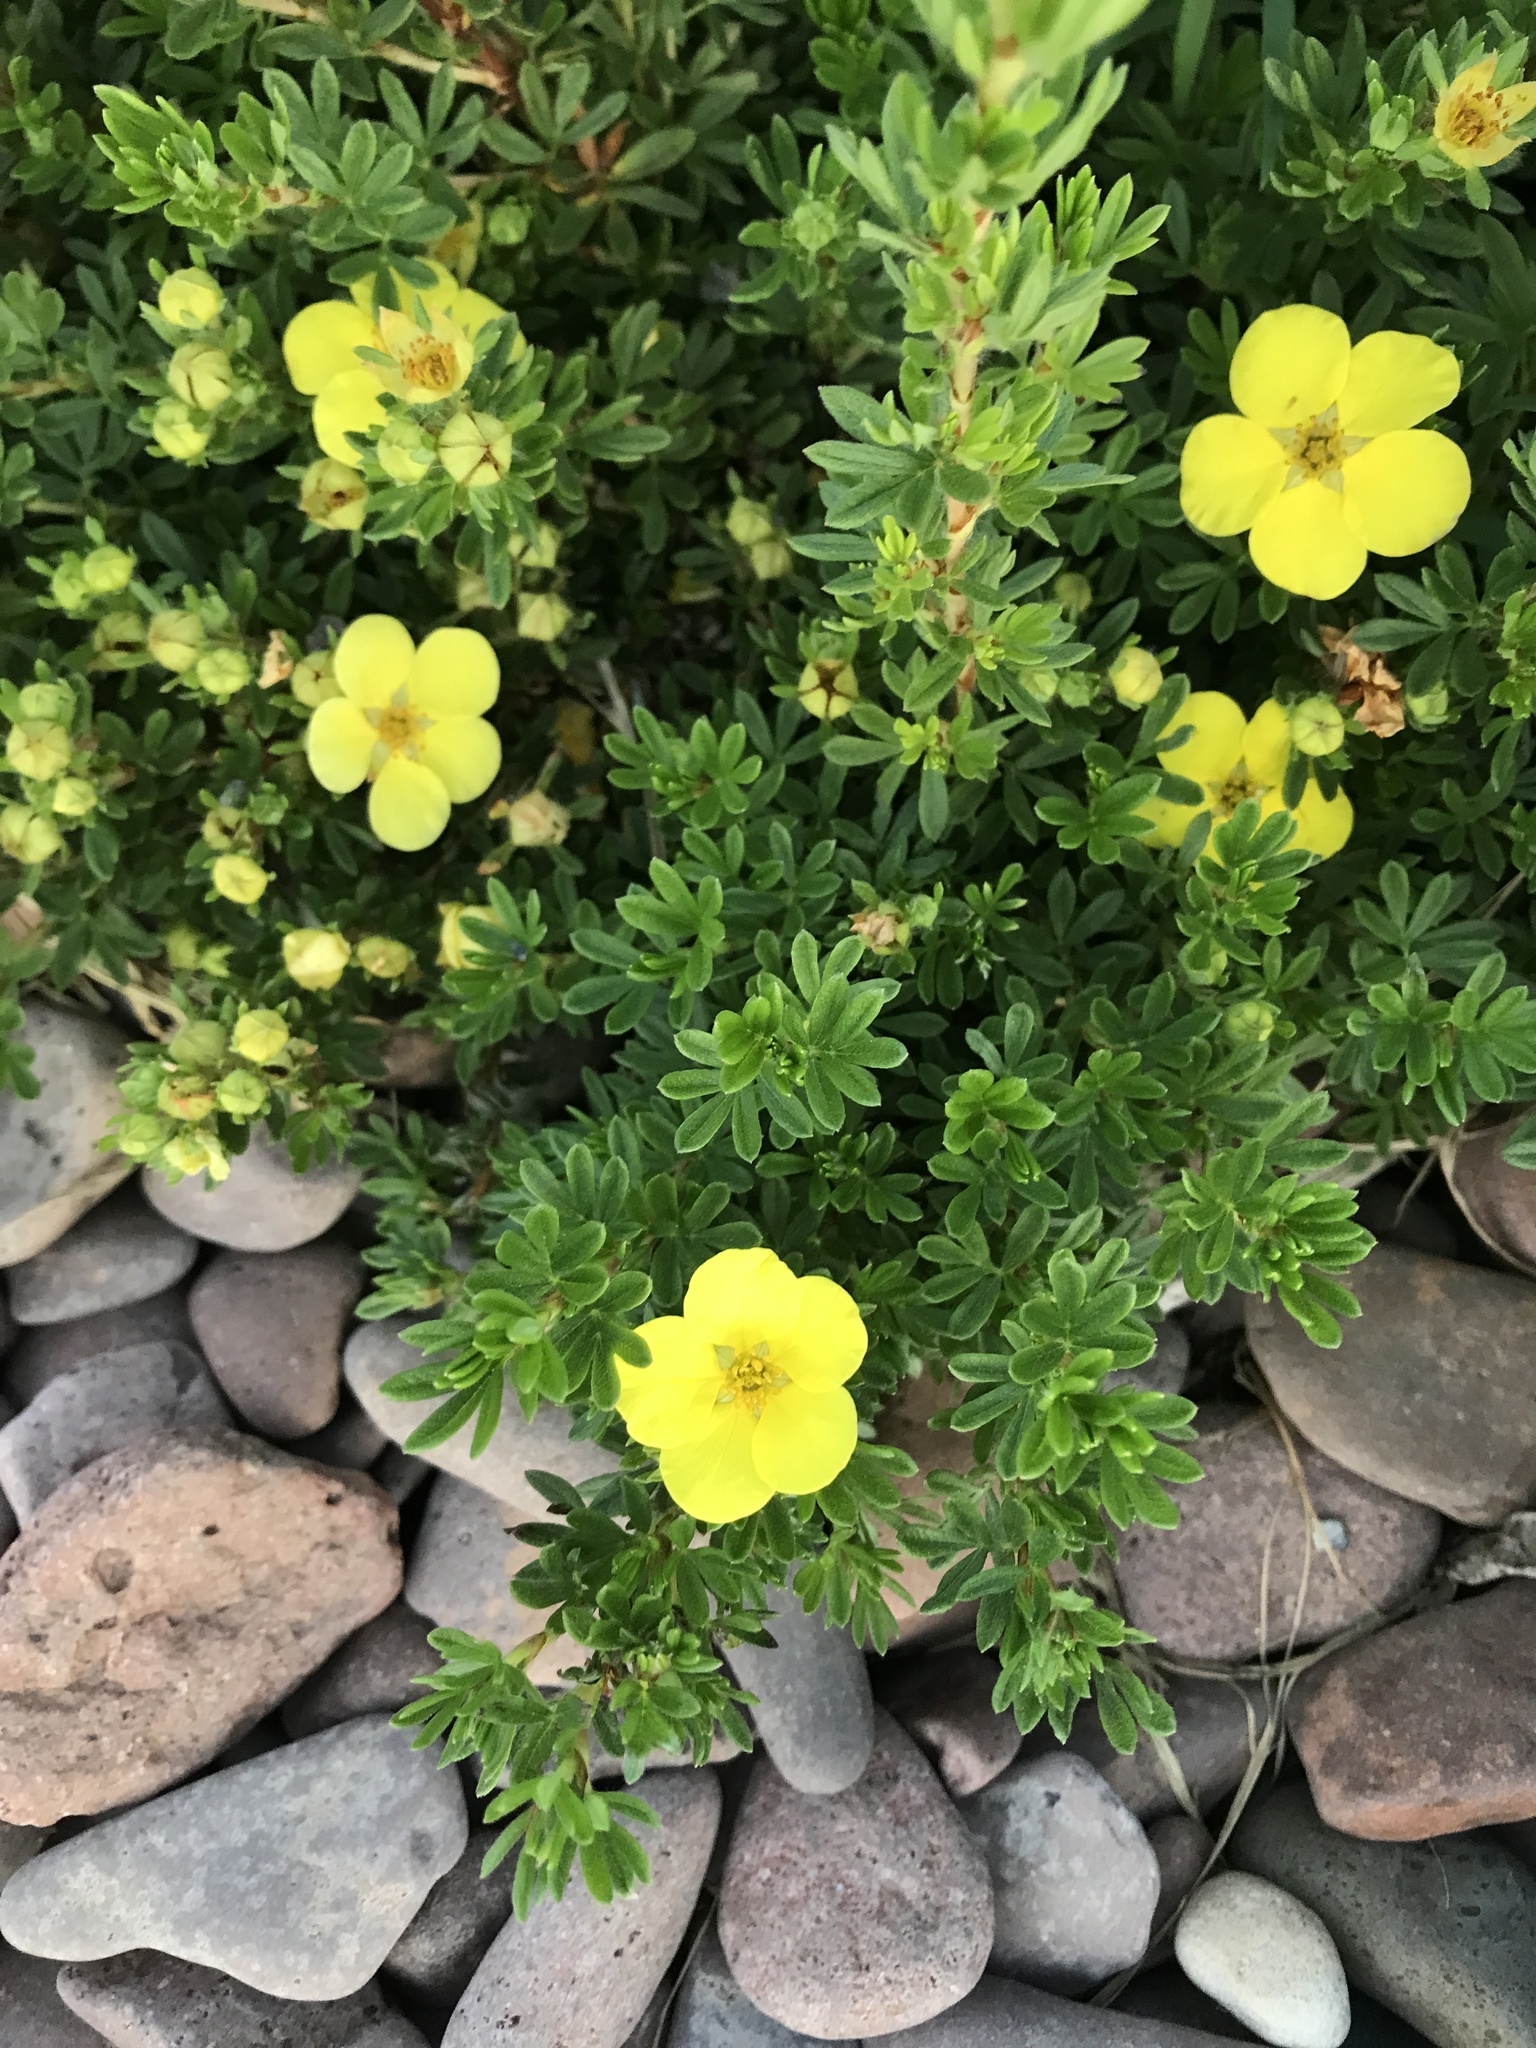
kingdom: Plantae
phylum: Tracheophyta
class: Magnoliopsida
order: Rosales
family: Rosaceae
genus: Dasiphora
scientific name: Dasiphora fruticosa
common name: Shrubby cinquefoil
